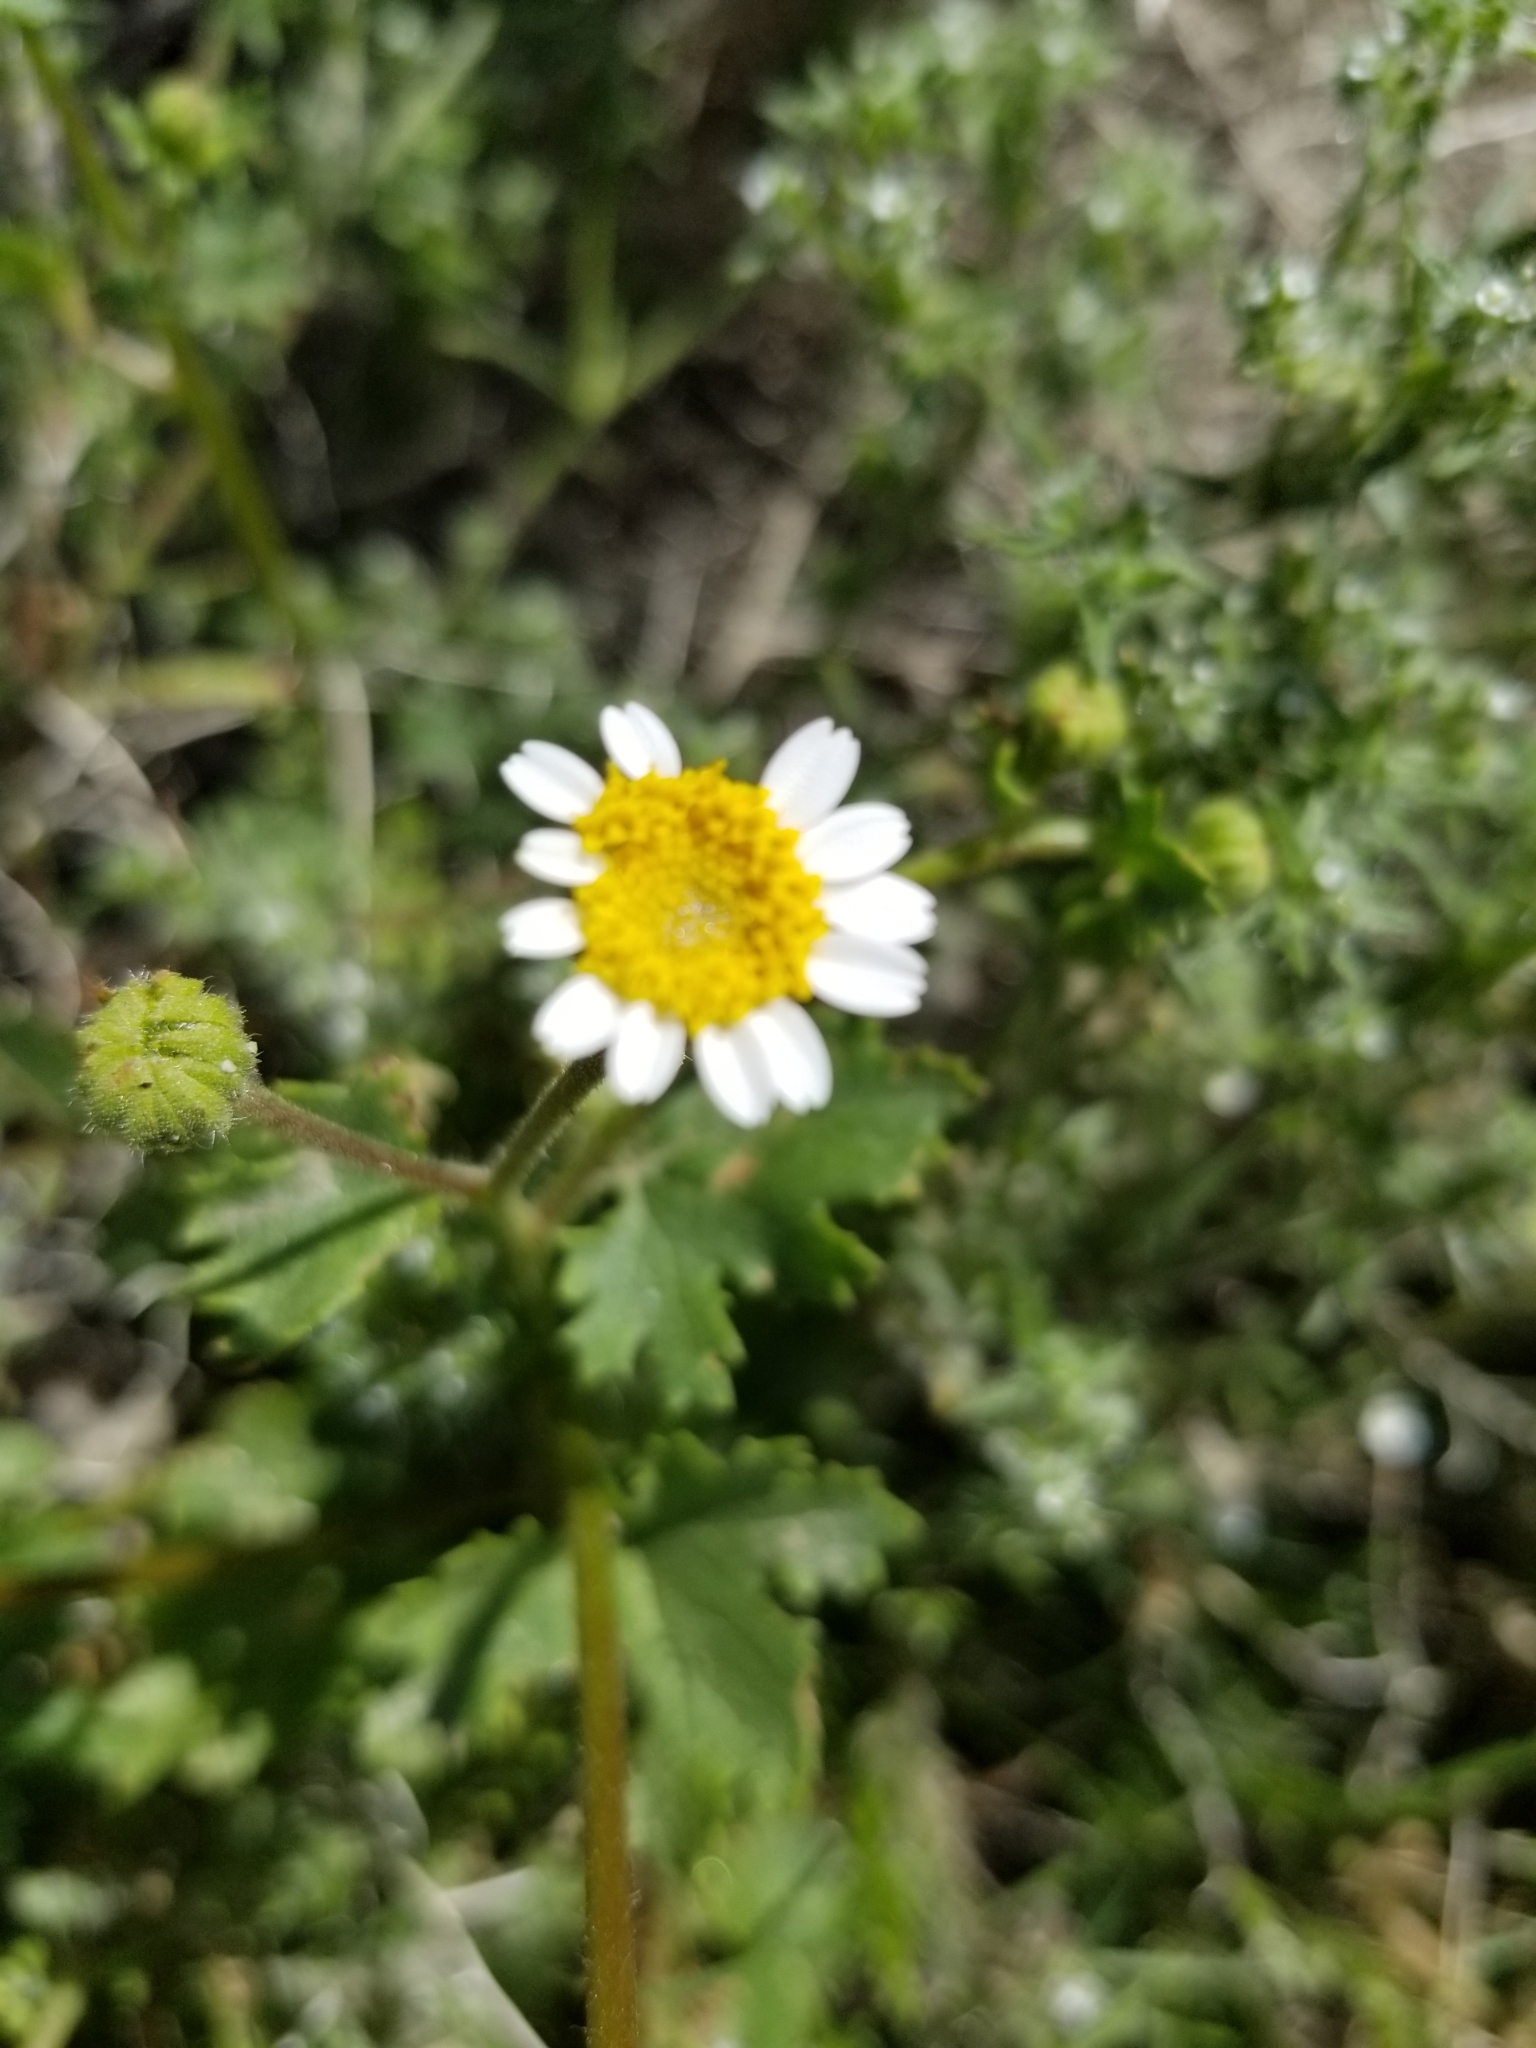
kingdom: Plantae
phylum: Tracheophyta
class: Magnoliopsida
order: Asterales
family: Asteraceae
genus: Laphamia
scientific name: Laphamia emoryi
